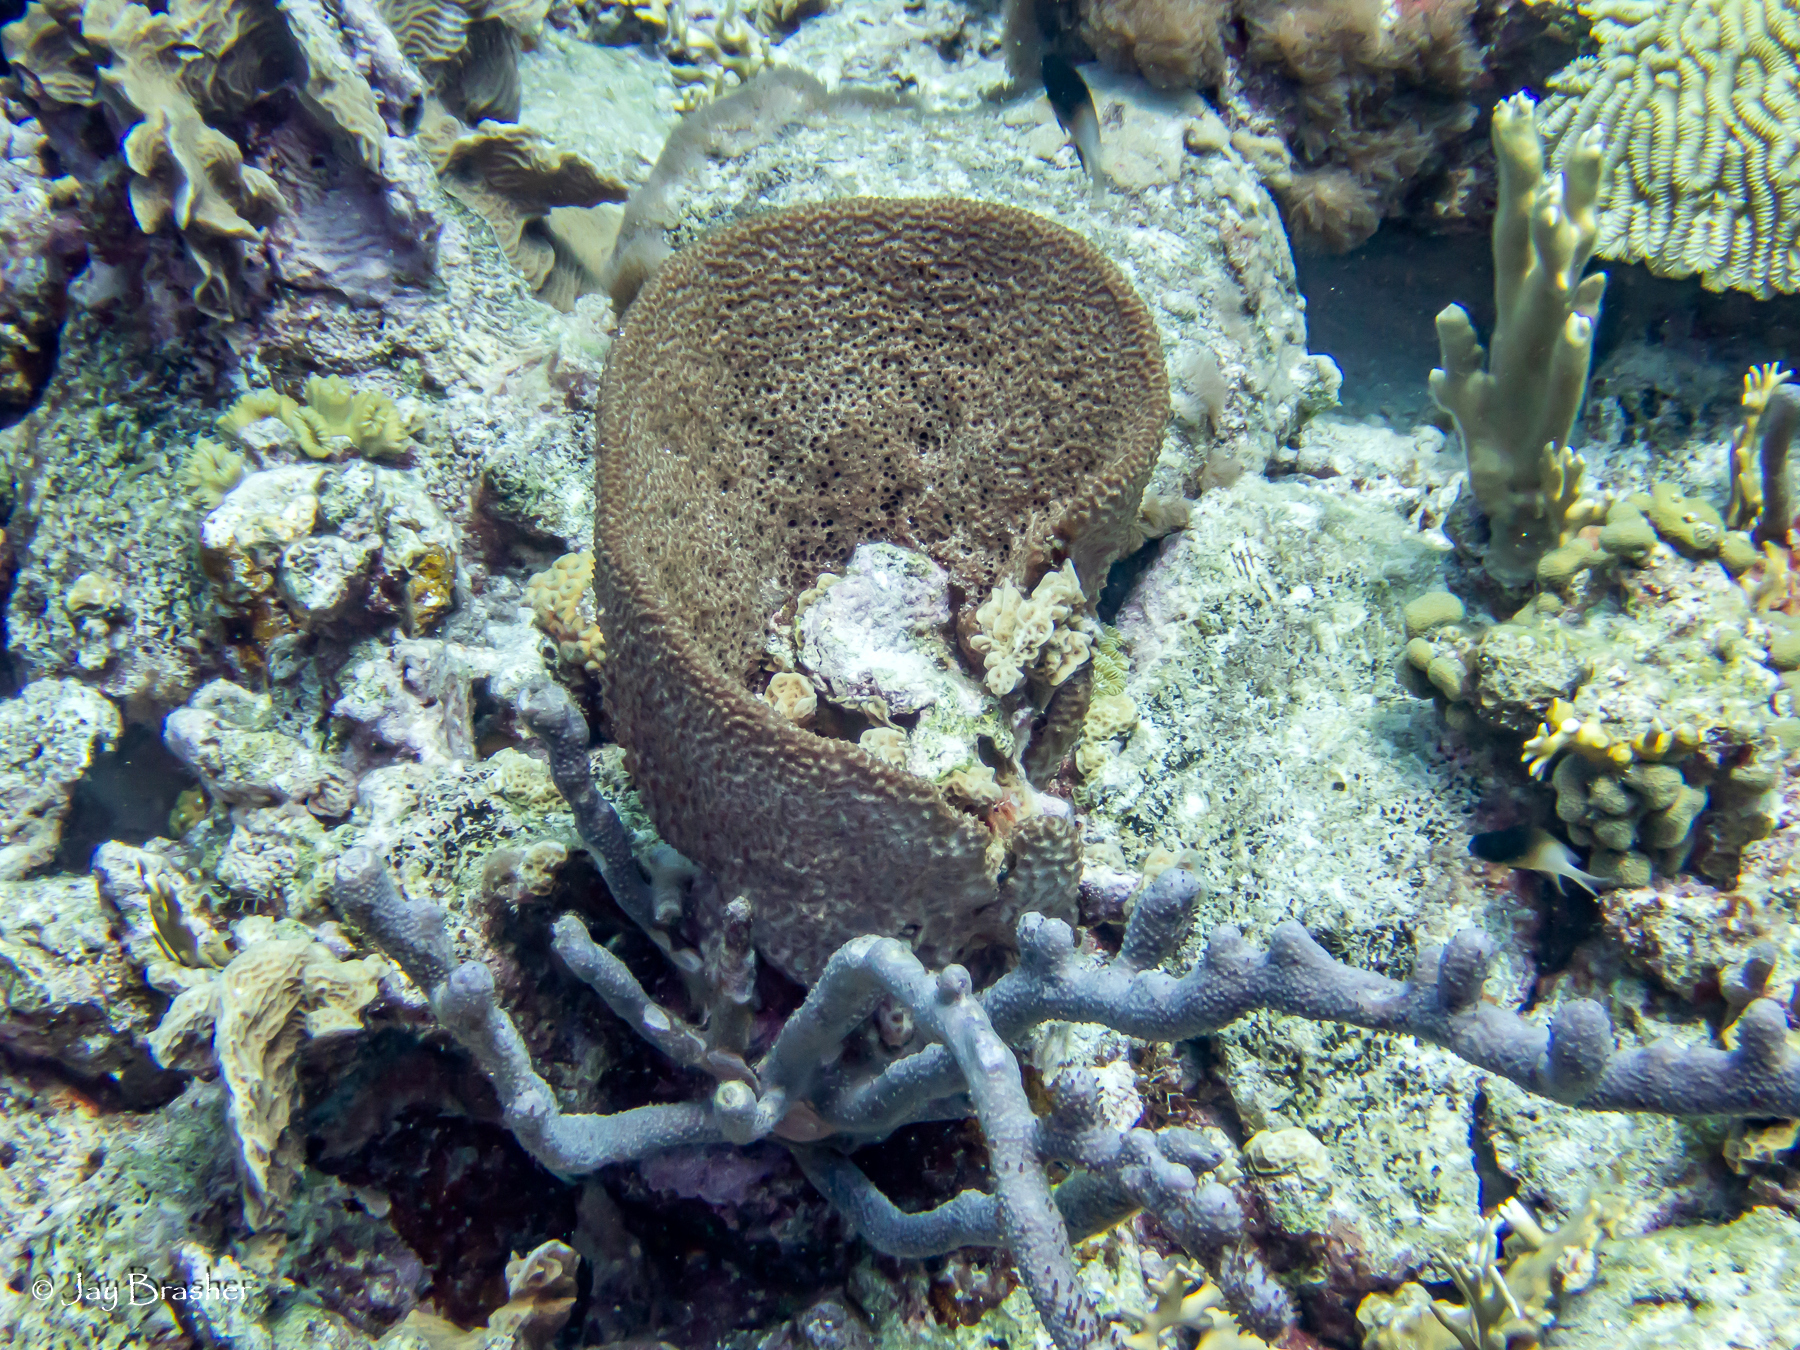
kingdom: Animalia
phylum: Porifera
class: Demospongiae
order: Dictyoceratida
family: Irciniidae
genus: Ircinia
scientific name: Ircinia campana
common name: Vase sponge
